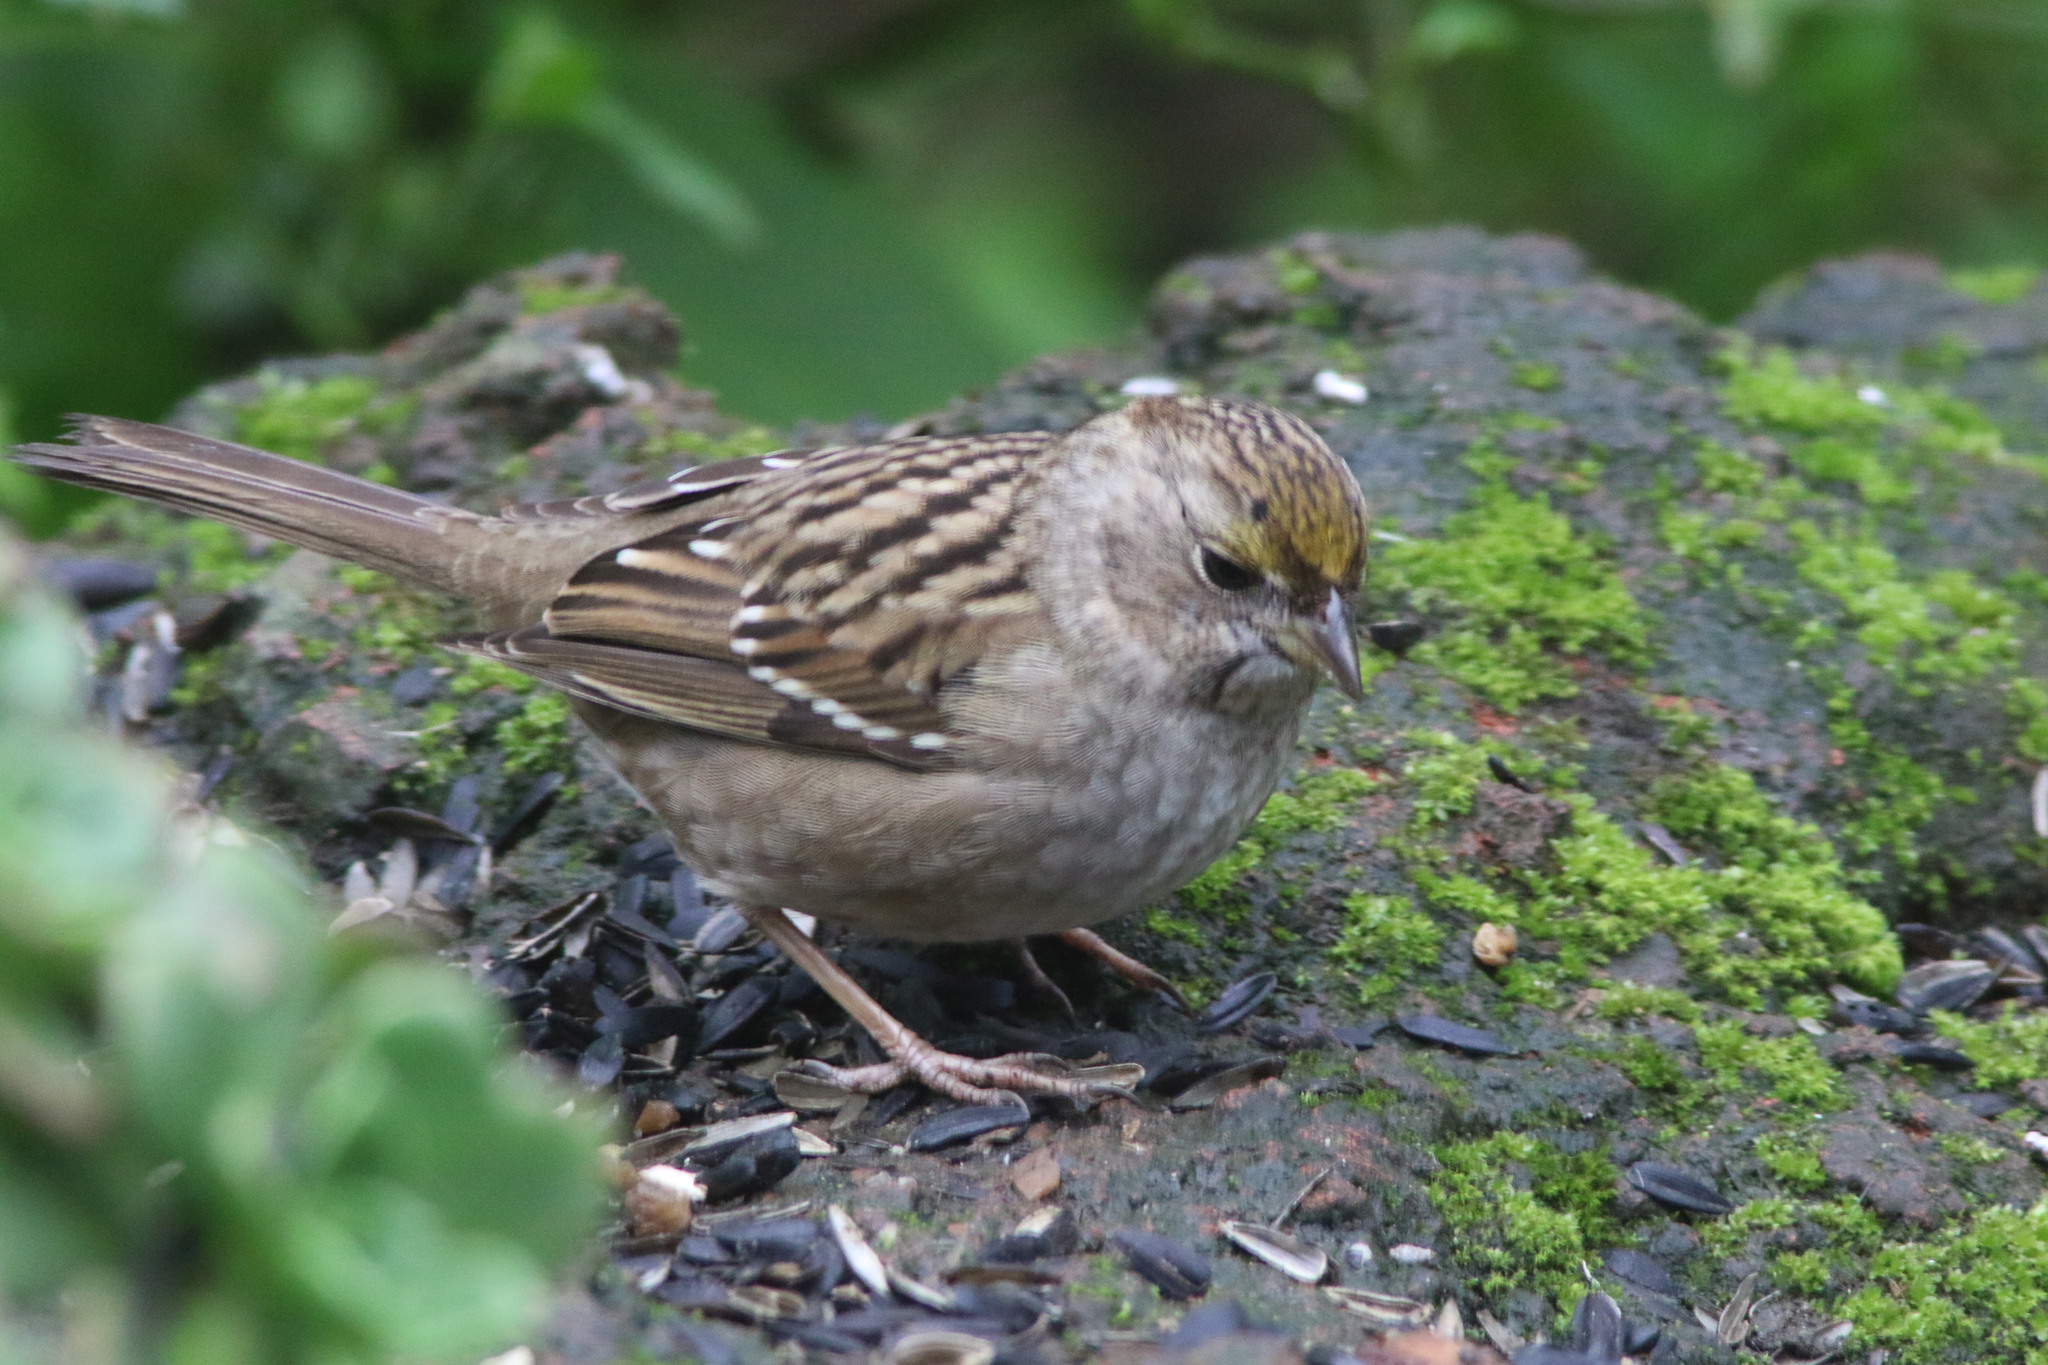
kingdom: Animalia
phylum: Chordata
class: Aves
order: Passeriformes
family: Passerellidae
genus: Zonotrichia
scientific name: Zonotrichia atricapilla
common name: Golden-crowned sparrow
